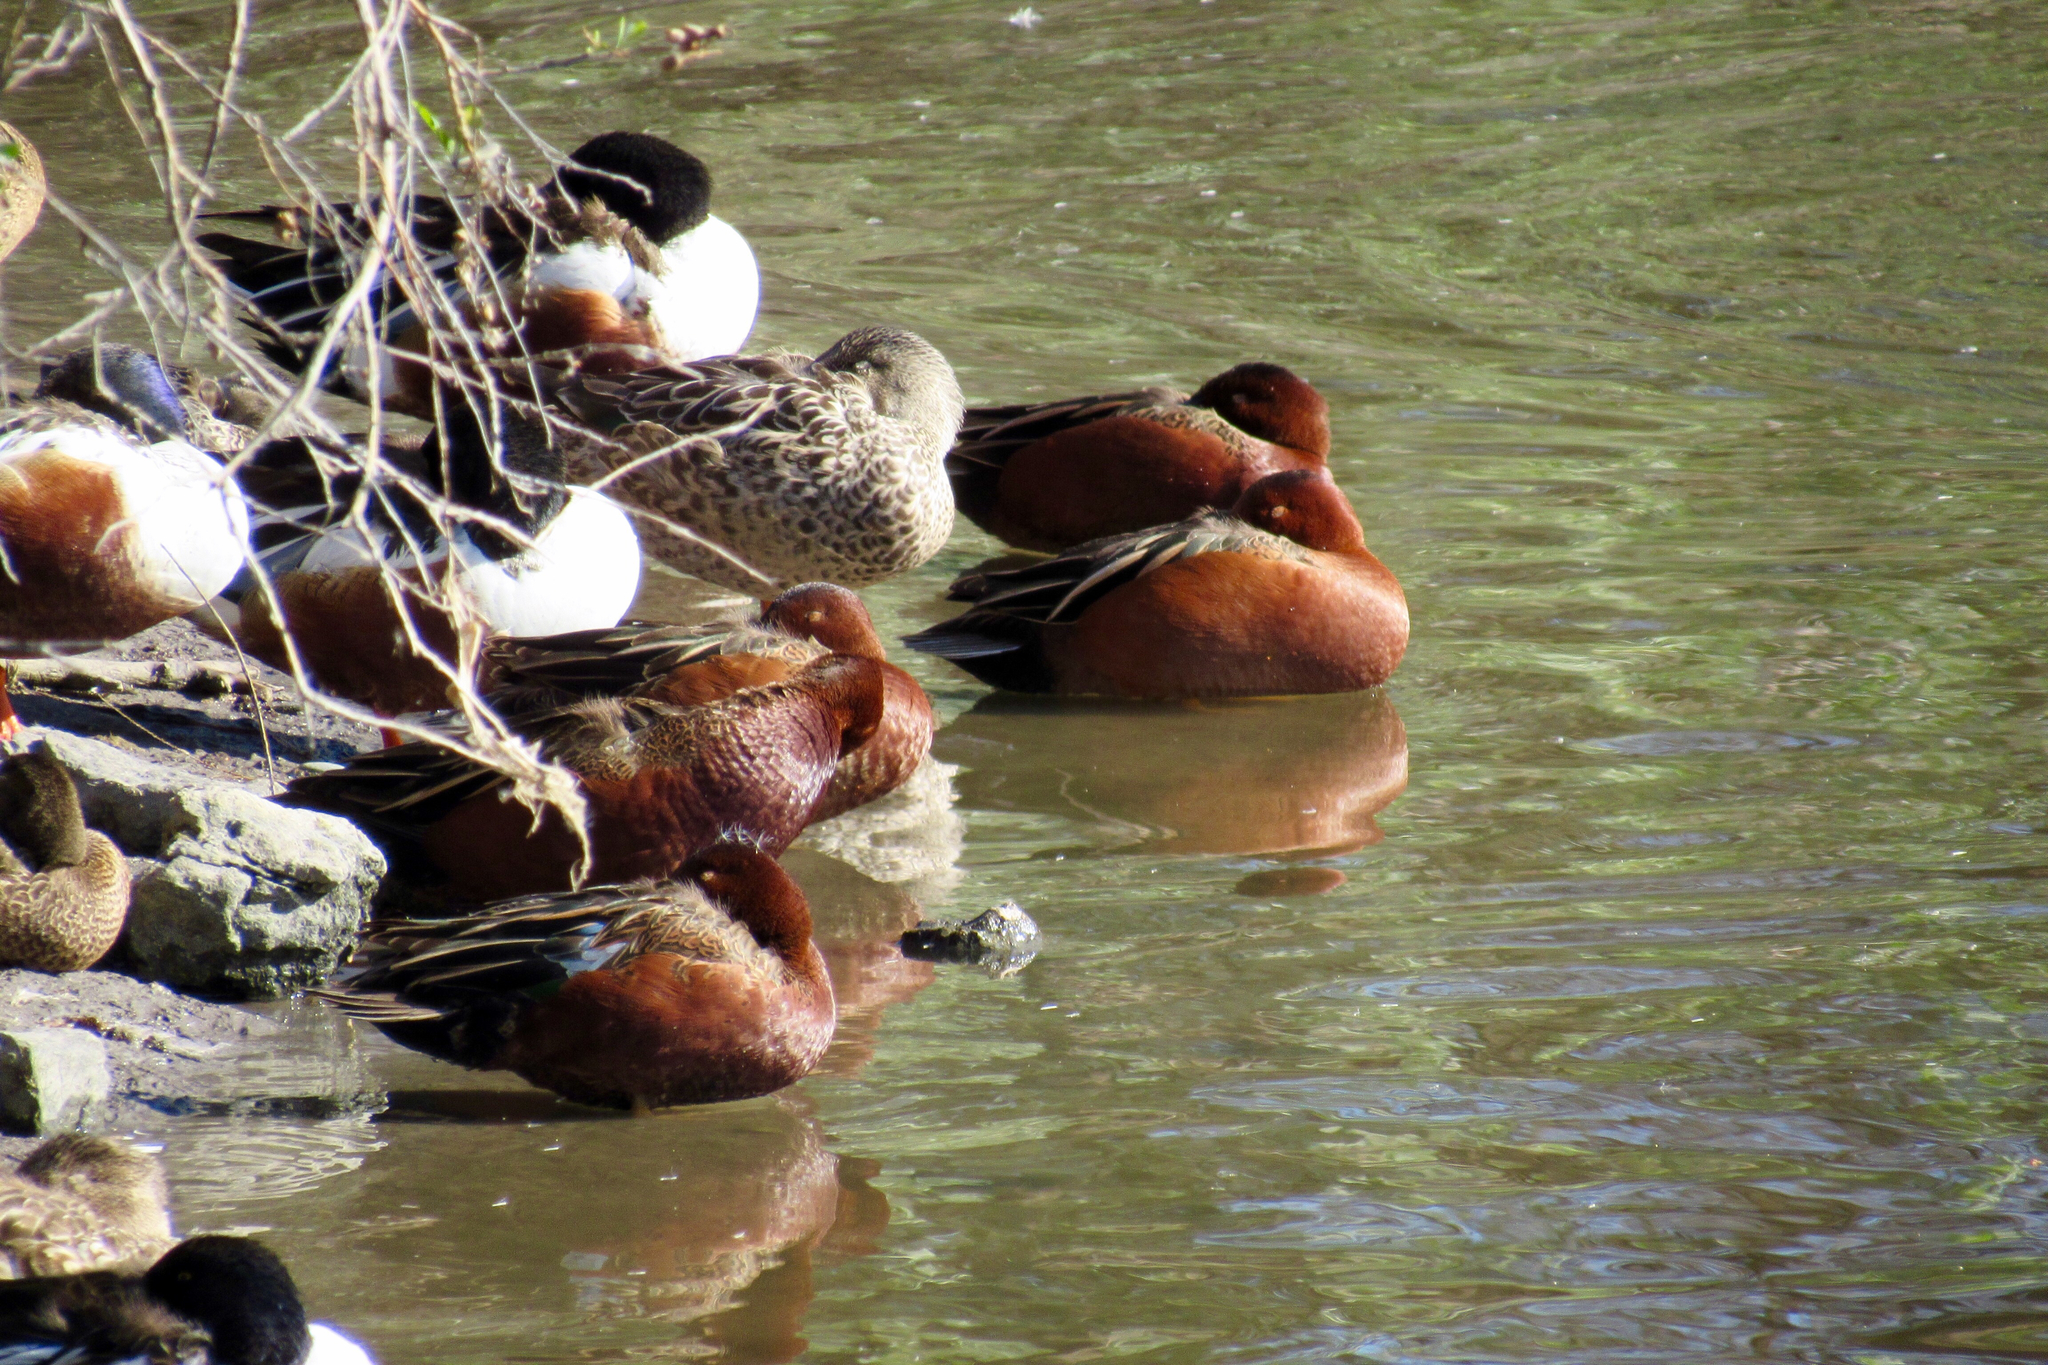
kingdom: Animalia
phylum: Chordata
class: Aves
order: Anseriformes
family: Anatidae
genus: Spatula
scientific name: Spatula cyanoptera
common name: Cinnamon teal
